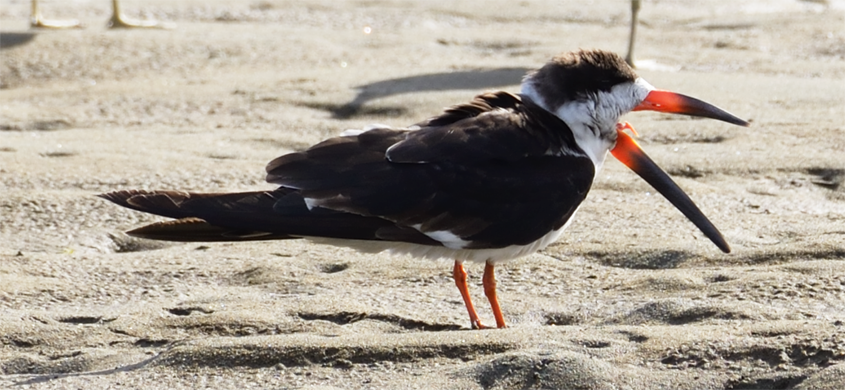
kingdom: Animalia
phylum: Chordata
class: Aves
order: Charadriiformes
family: Laridae
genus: Rynchops
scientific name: Rynchops niger
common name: Black skimmer
